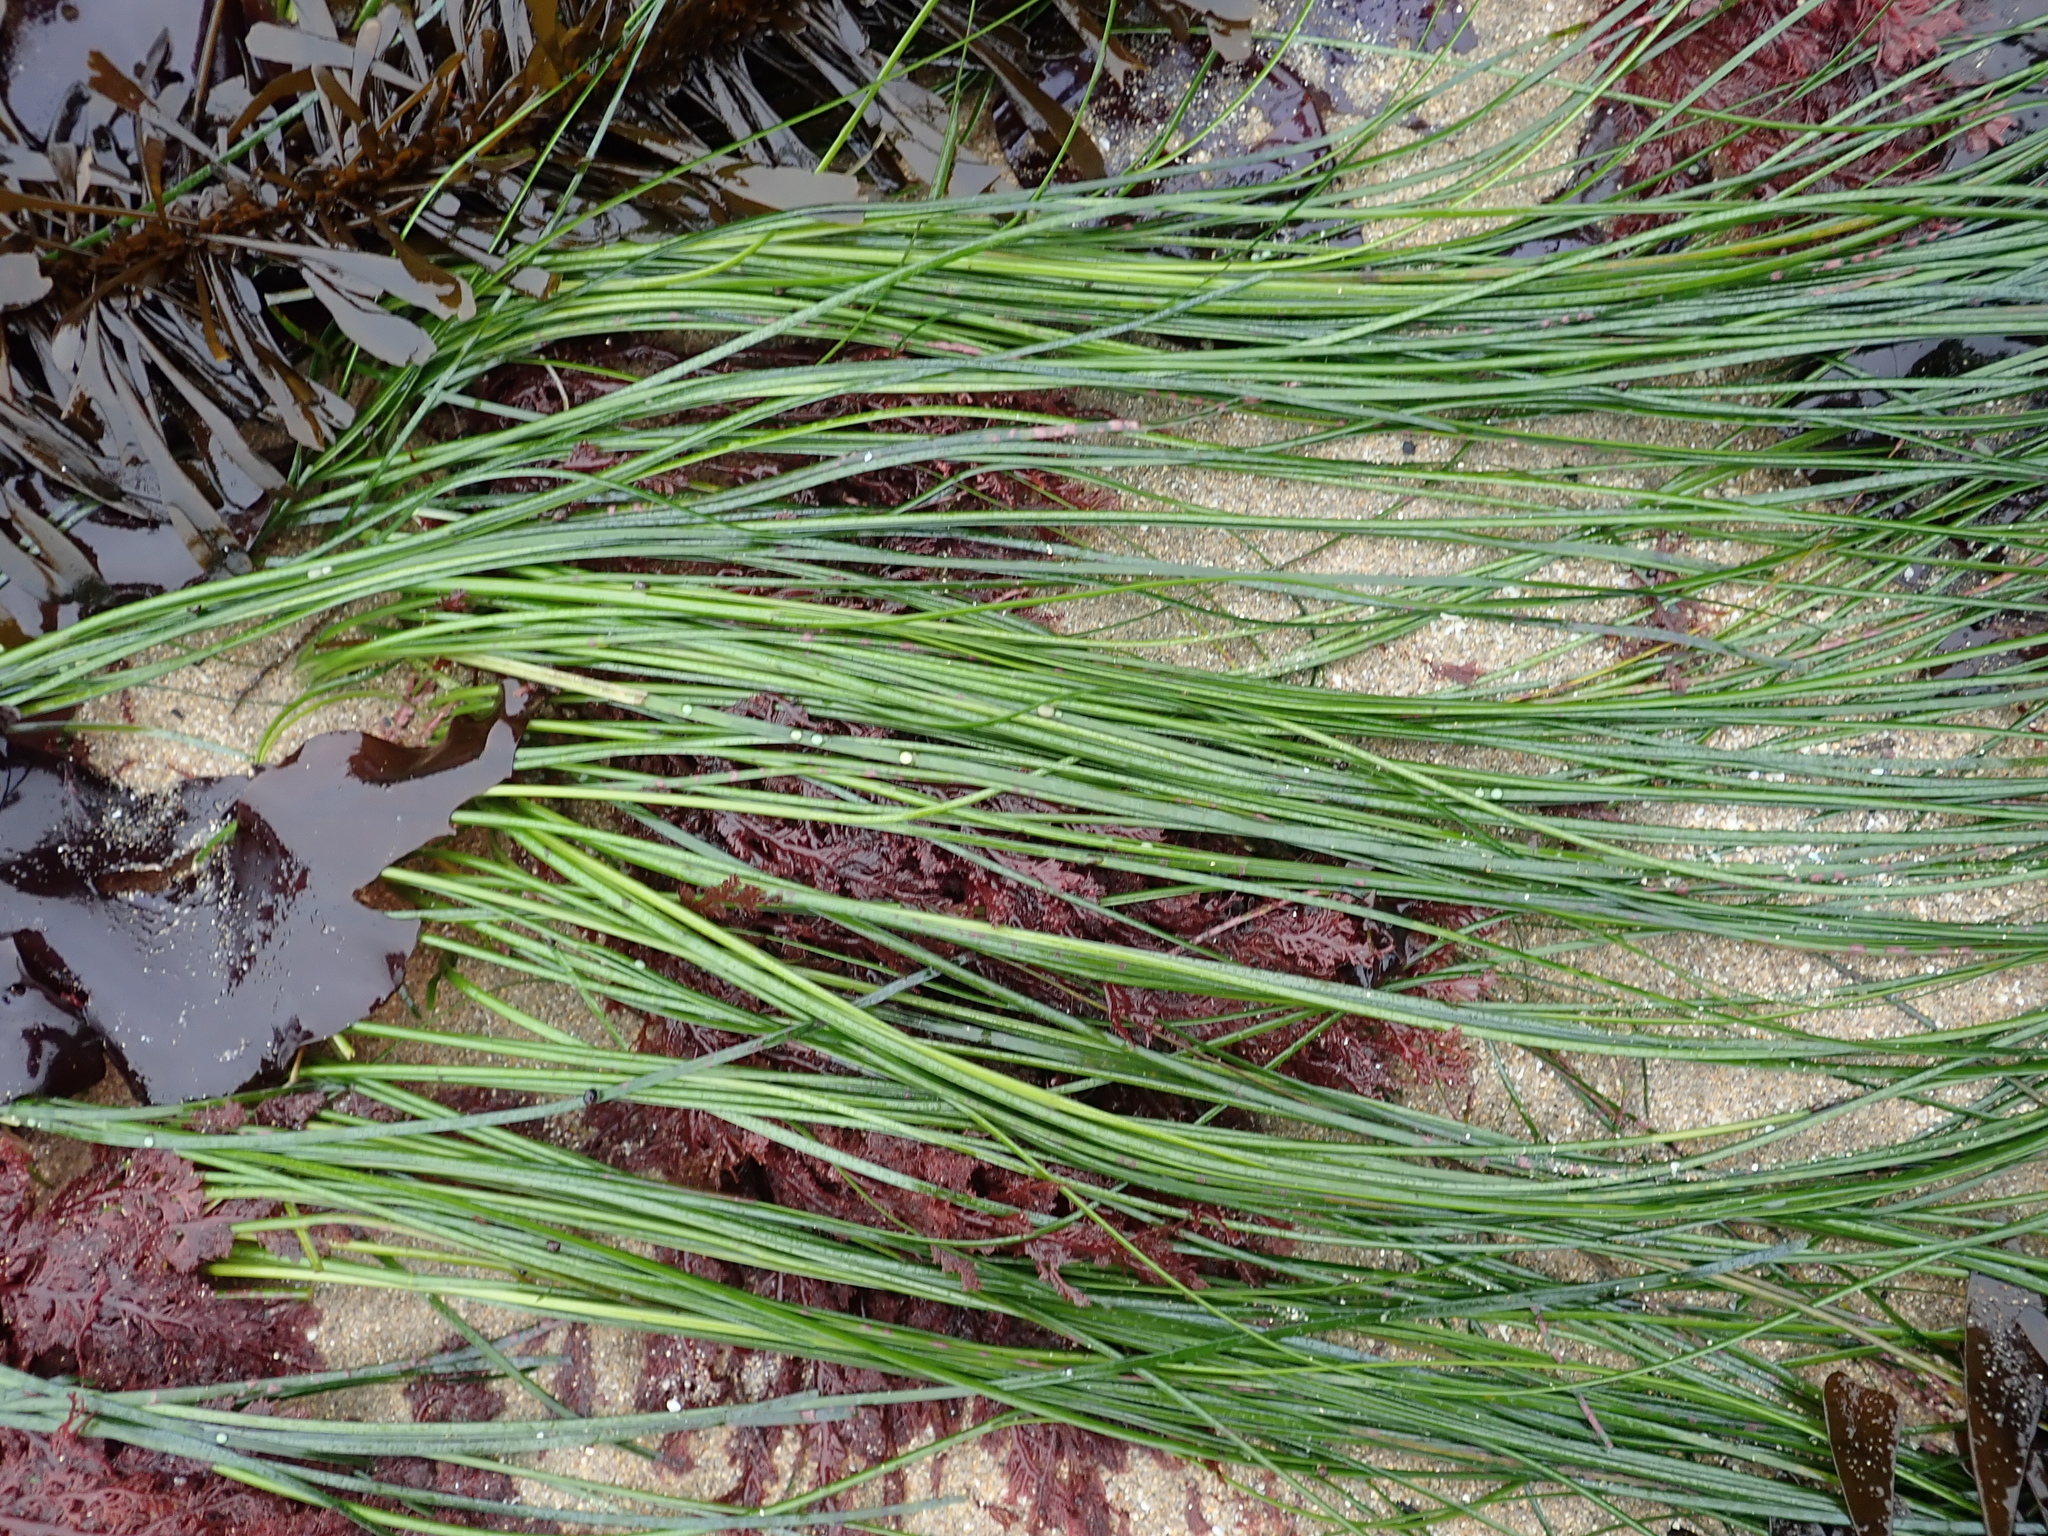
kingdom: Plantae
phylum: Tracheophyta
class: Liliopsida
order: Alismatales
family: Zosteraceae
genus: Phyllospadix
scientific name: Phyllospadix torreyi
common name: Surfgrass
